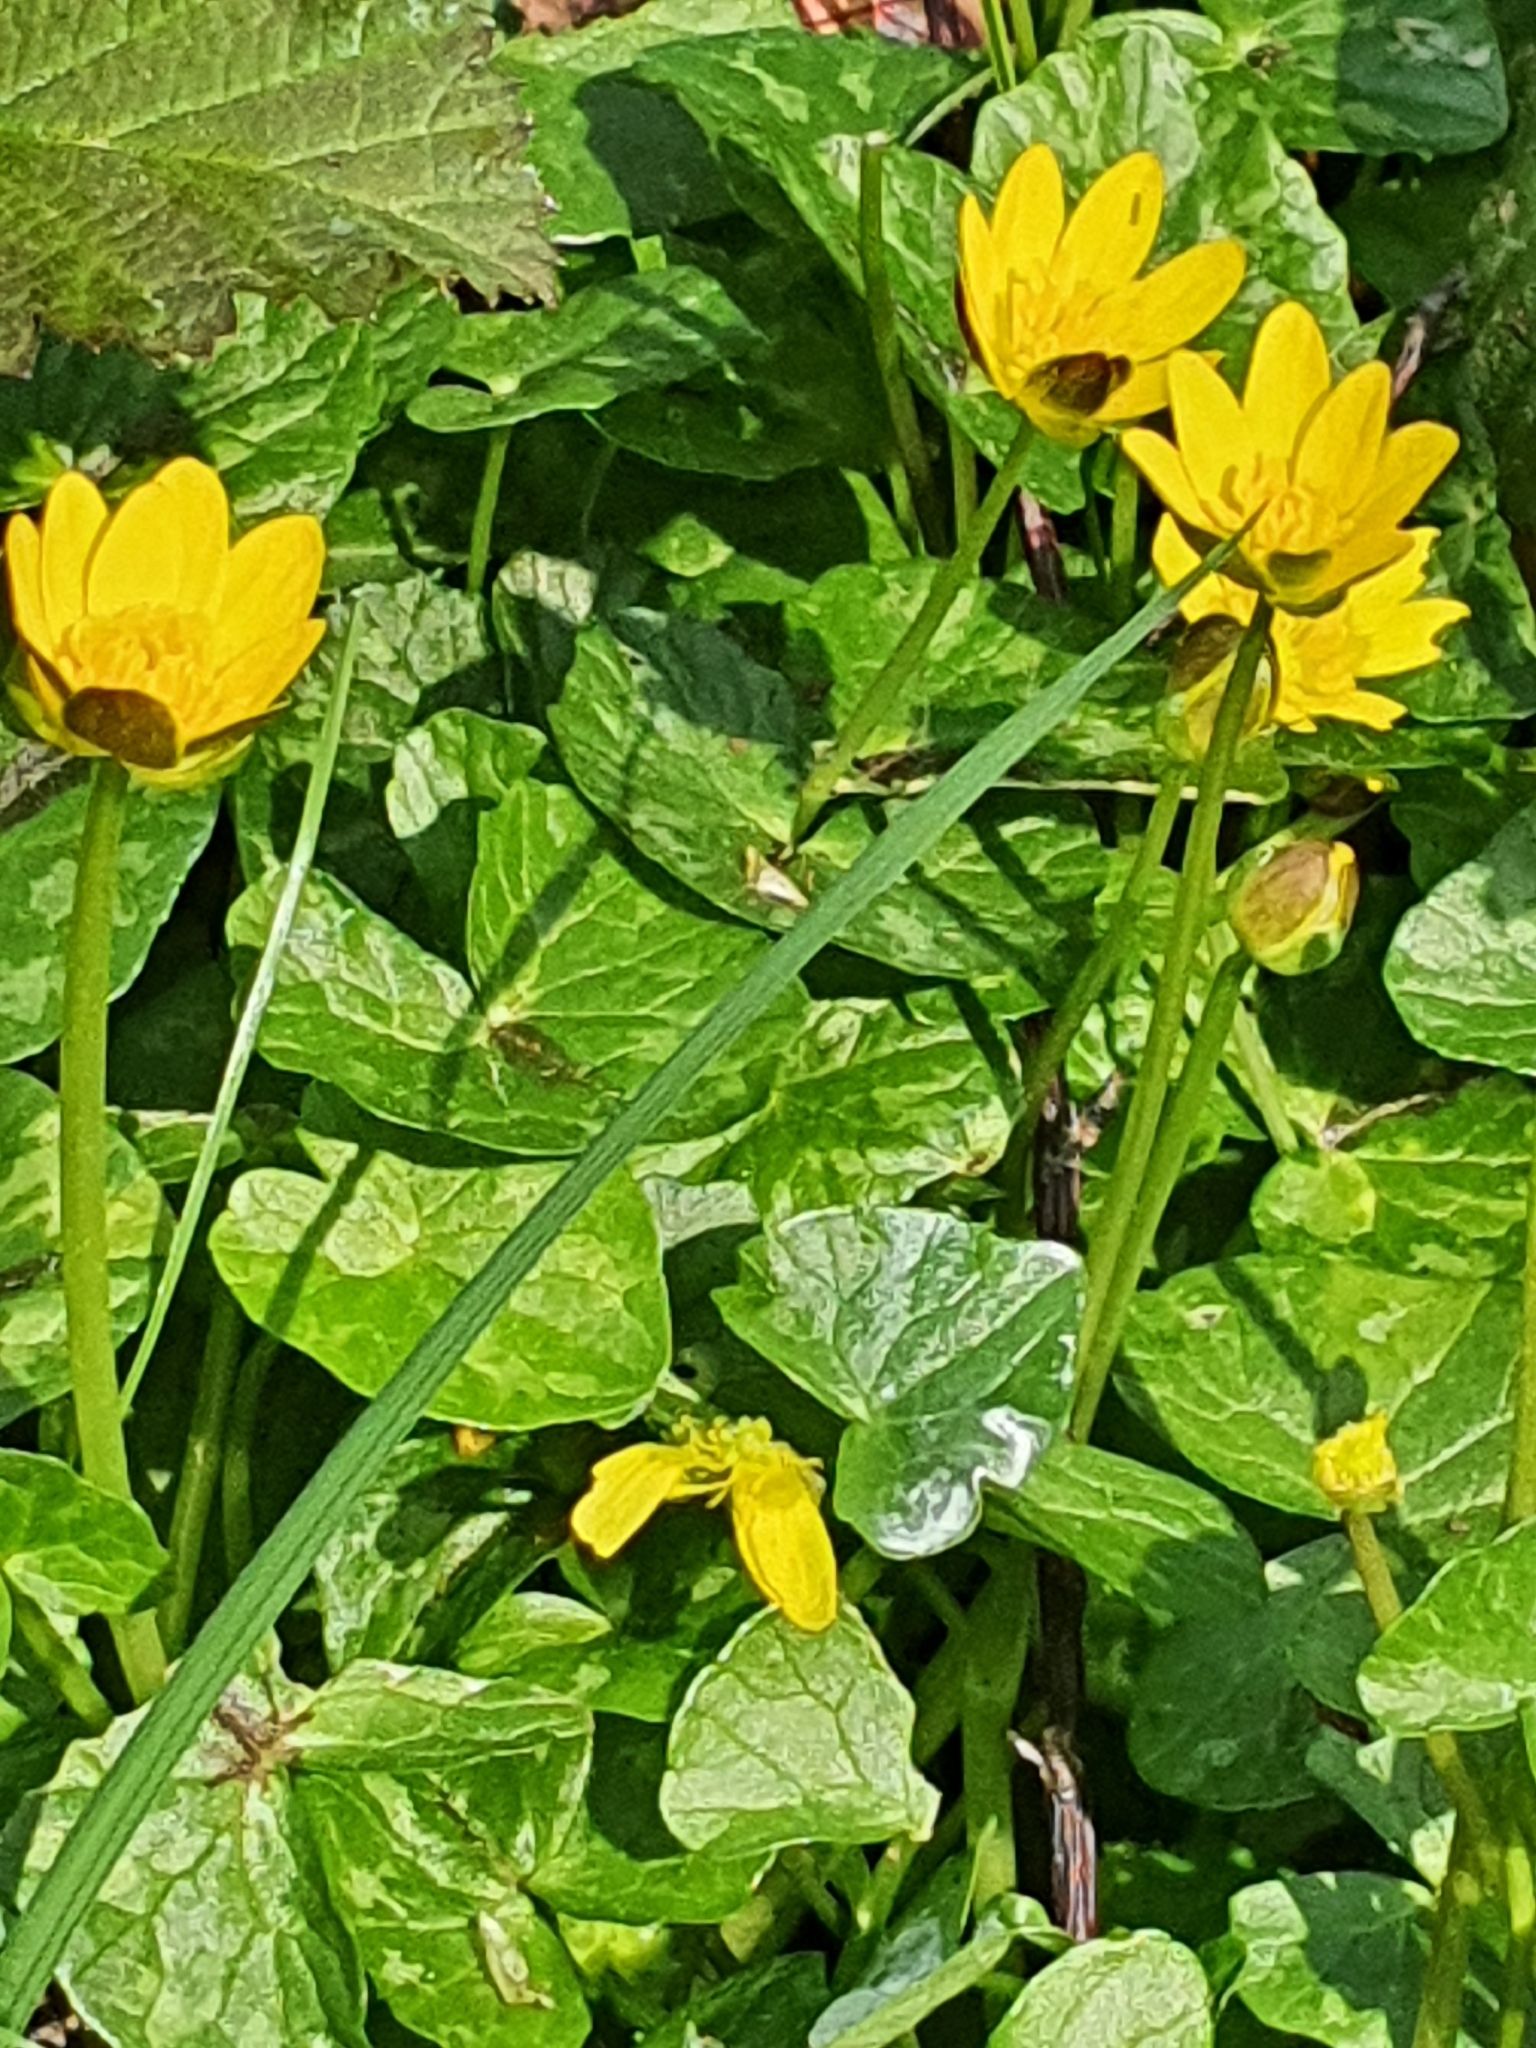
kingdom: Plantae
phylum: Tracheophyta
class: Magnoliopsida
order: Ranunculales
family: Ranunculaceae
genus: Ficaria
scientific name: Ficaria verna
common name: Lesser celandine
